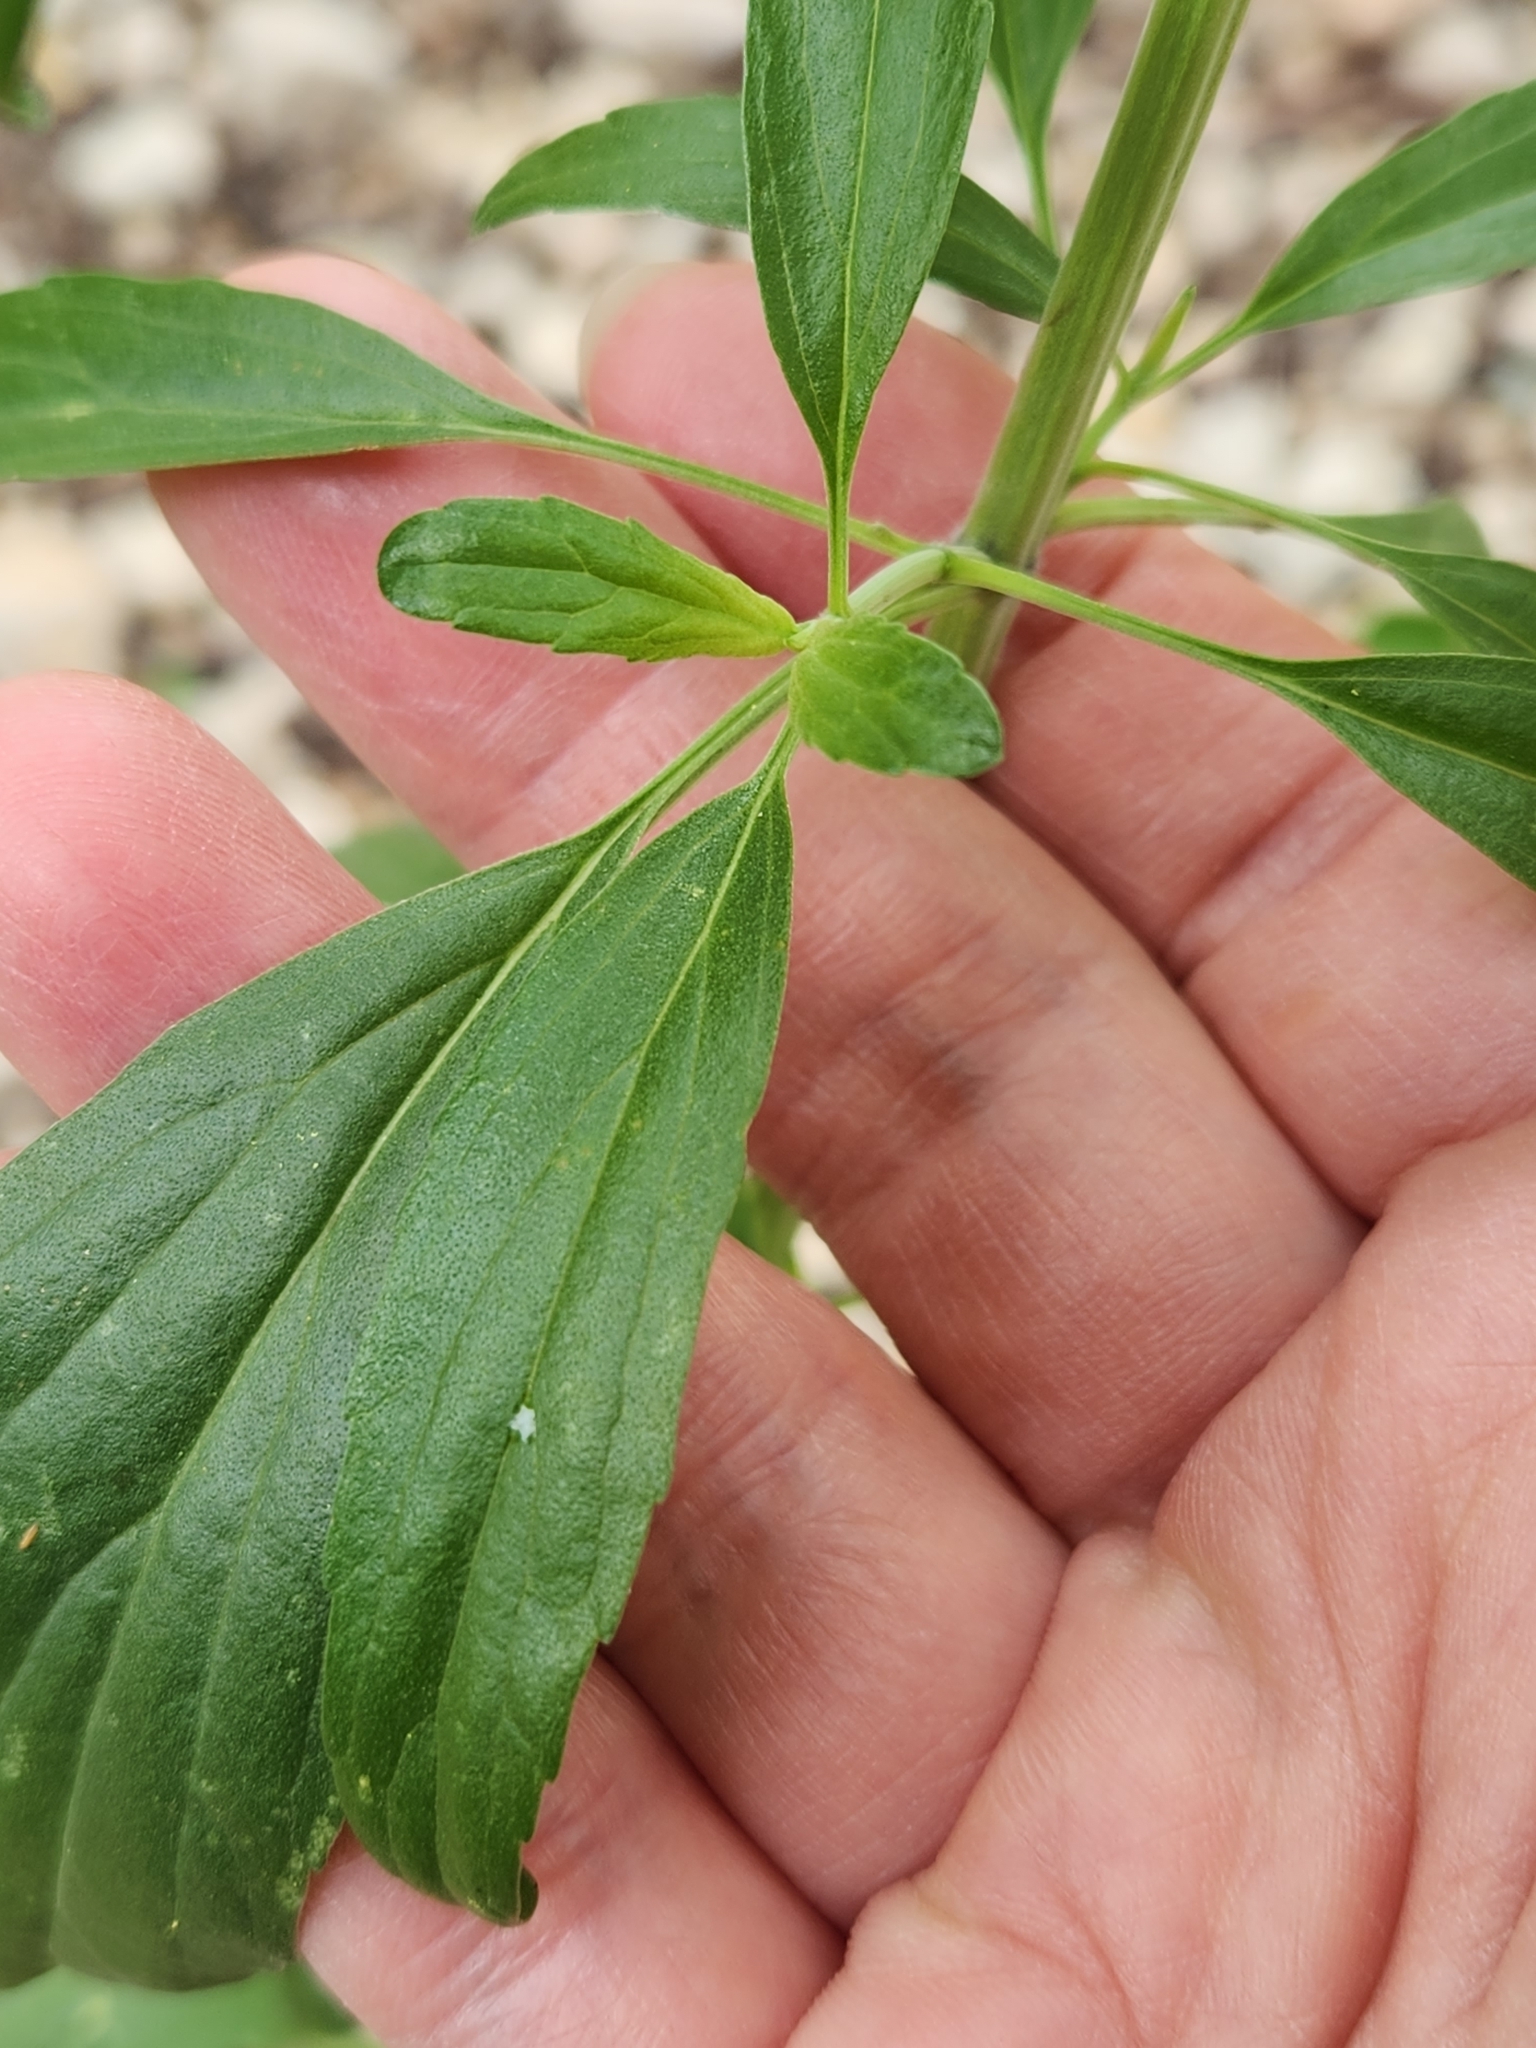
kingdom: Plantae
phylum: Tracheophyta
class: Magnoliopsida
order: Lamiales
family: Lamiaceae
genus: Salvia
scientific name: Salvia farinacea
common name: Mealy sage
